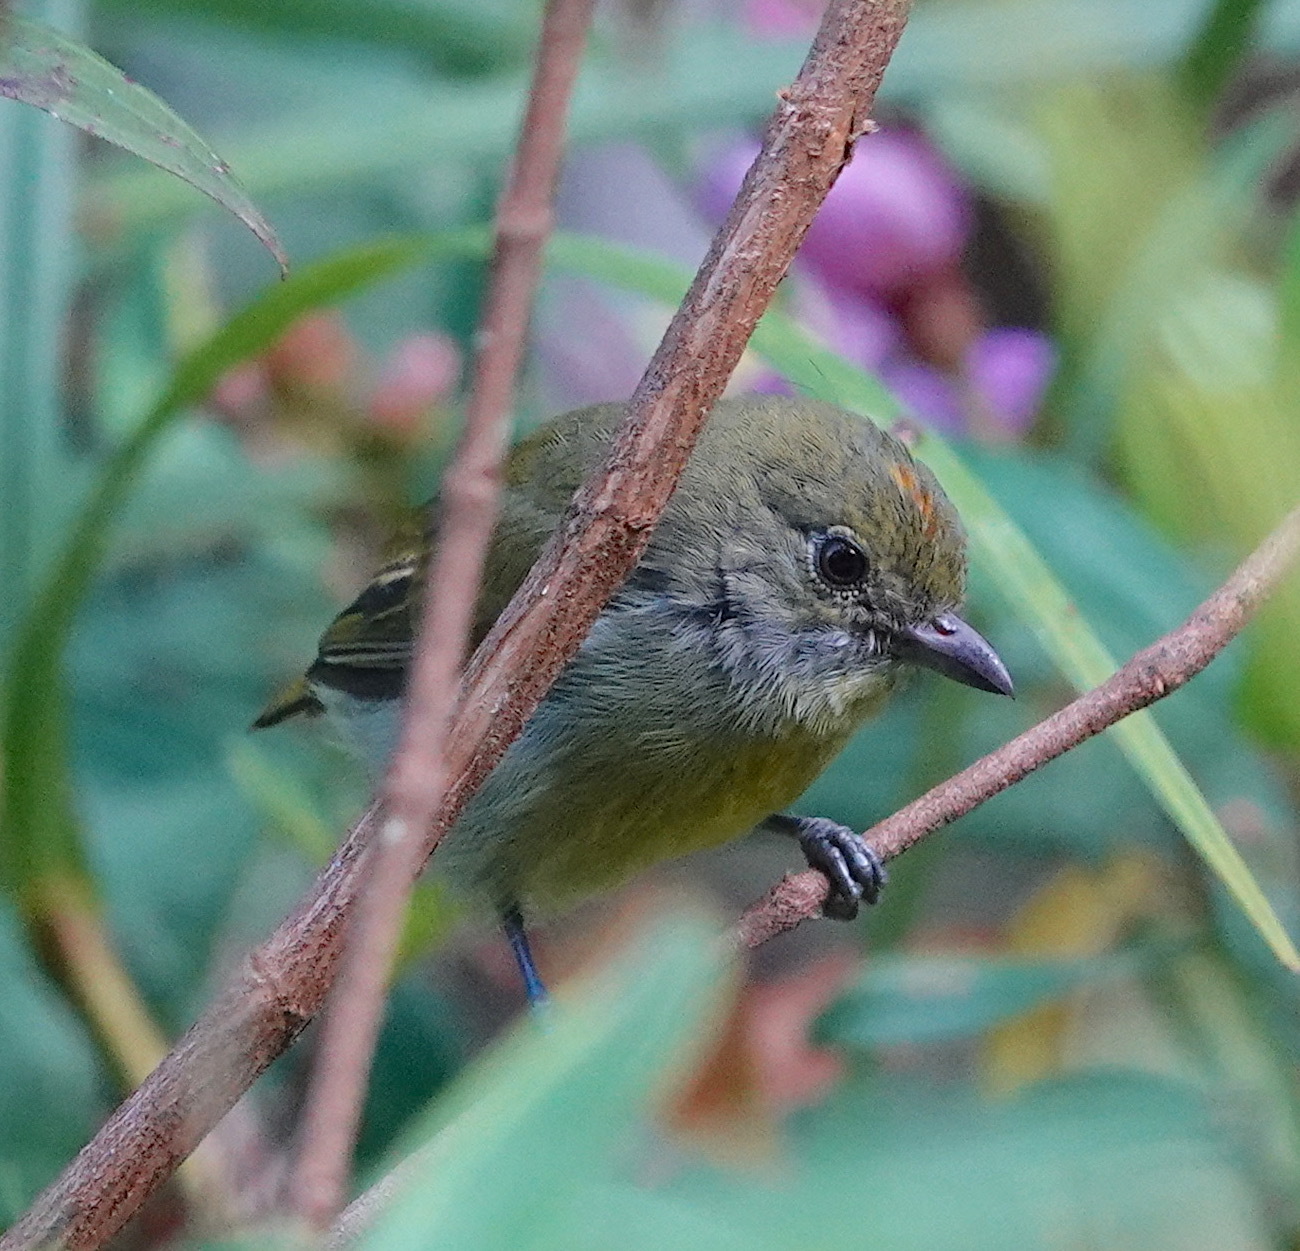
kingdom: Animalia
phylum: Chordata
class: Aves
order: Passeriformes
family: Dicaeidae
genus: Prionochilus
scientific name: Prionochilus maculatus
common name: Yellow-breasted flowerpecker
